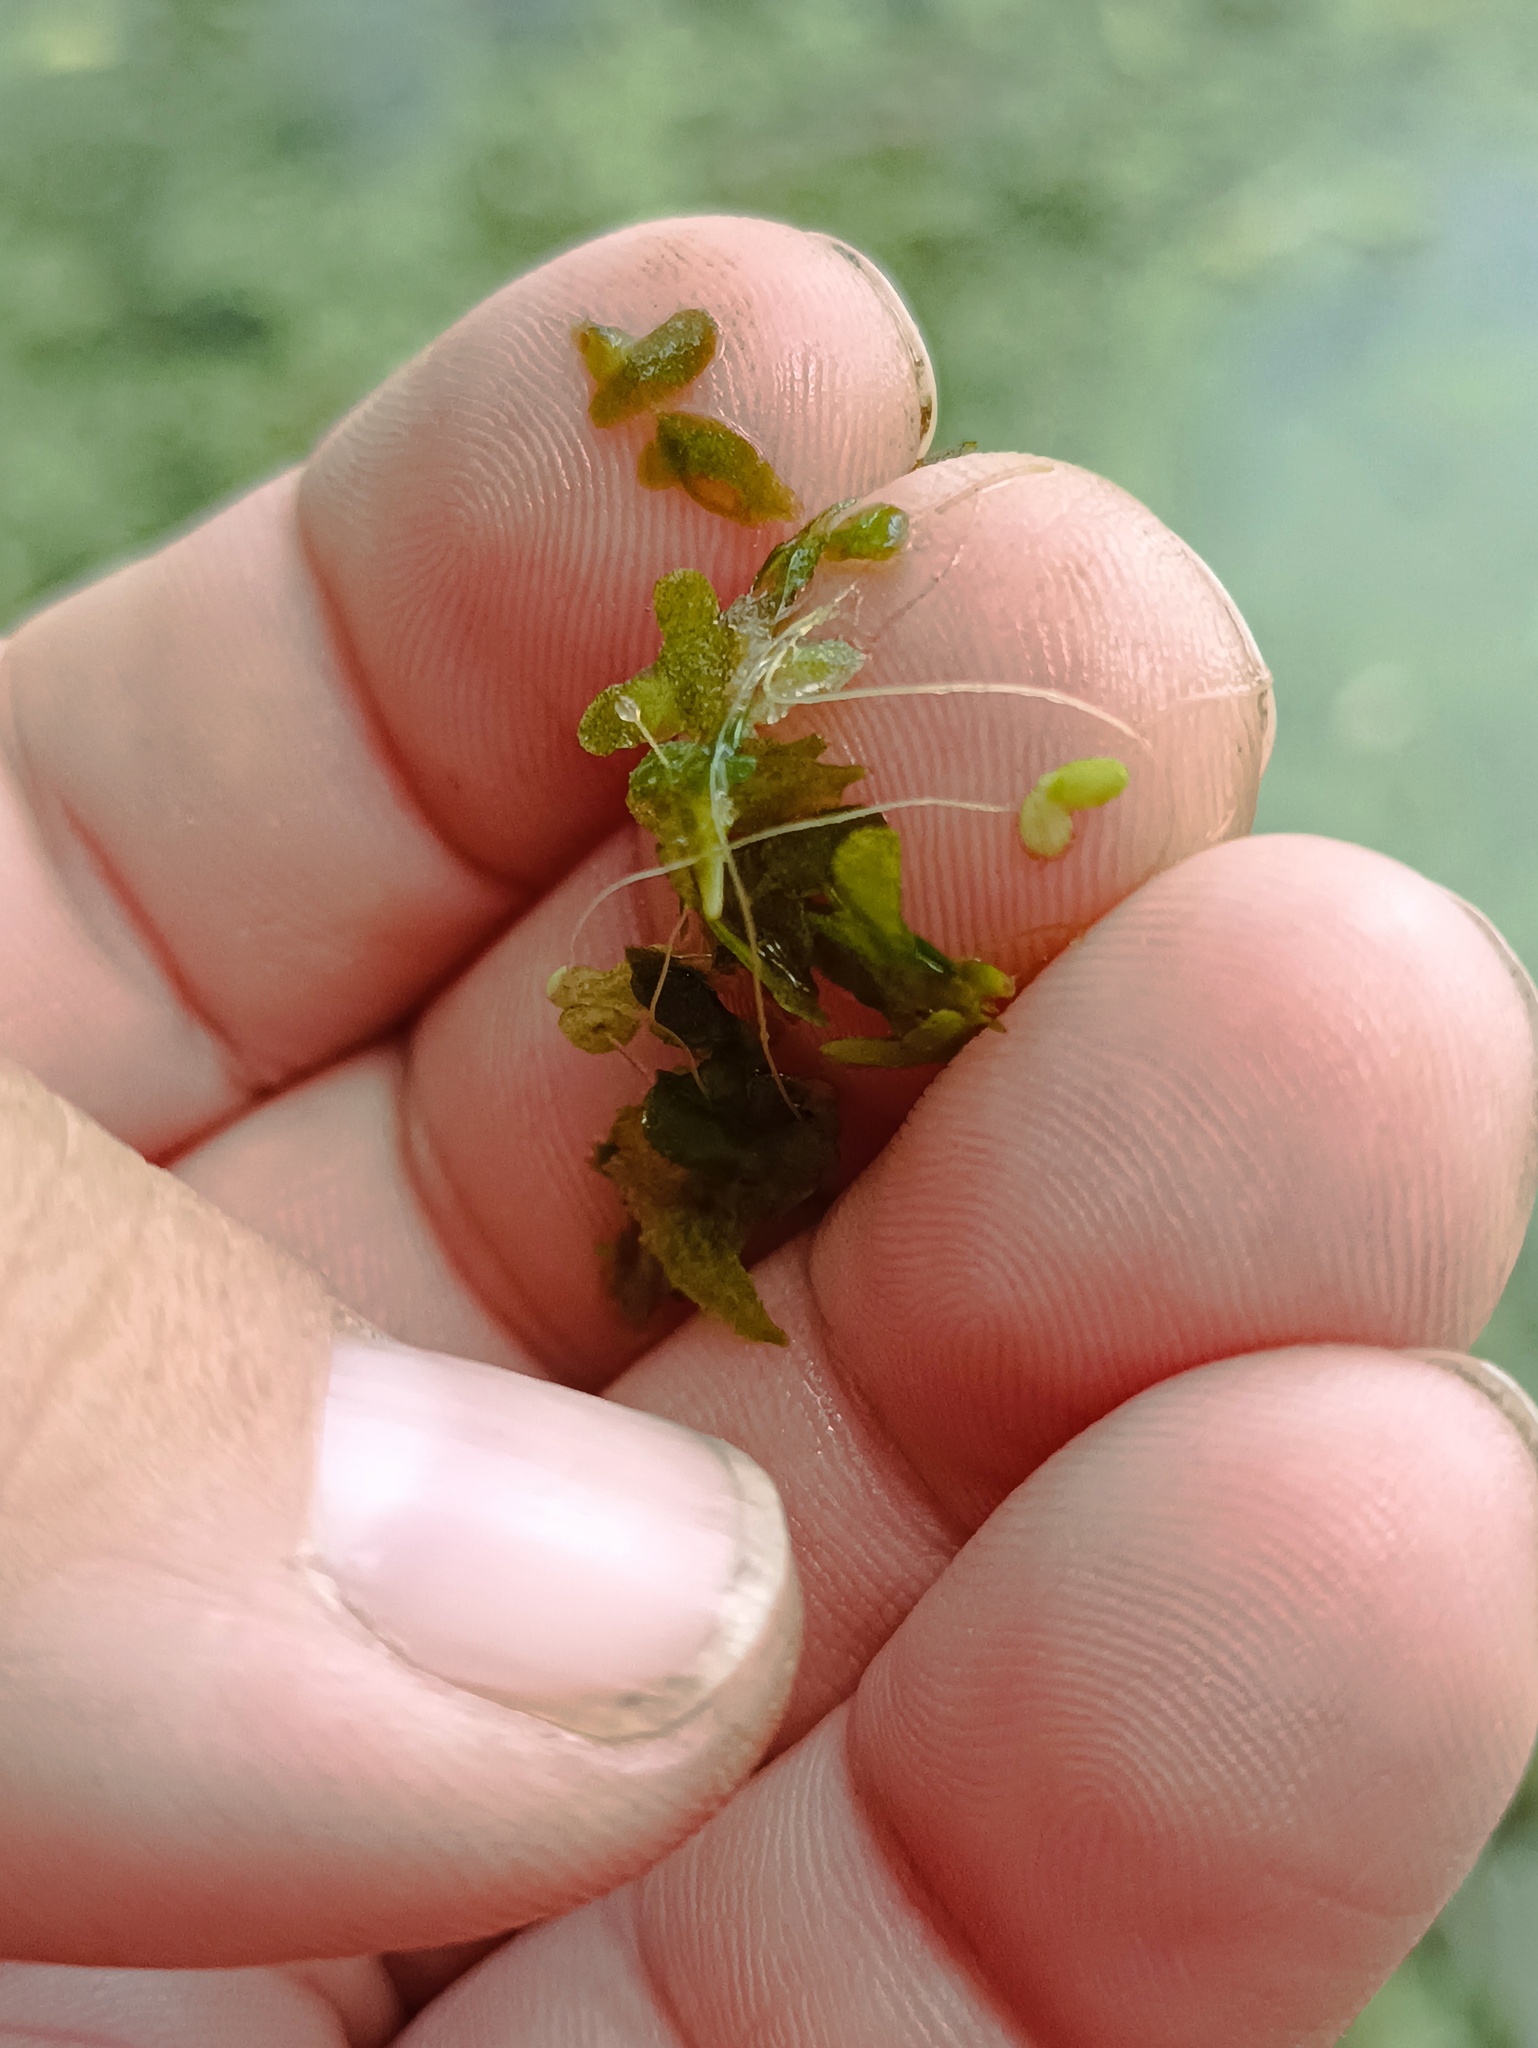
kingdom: Plantae
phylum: Tracheophyta
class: Liliopsida
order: Alismatales
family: Araceae
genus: Lemna
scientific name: Lemna trisulca
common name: Ivy-leaved duckweed
